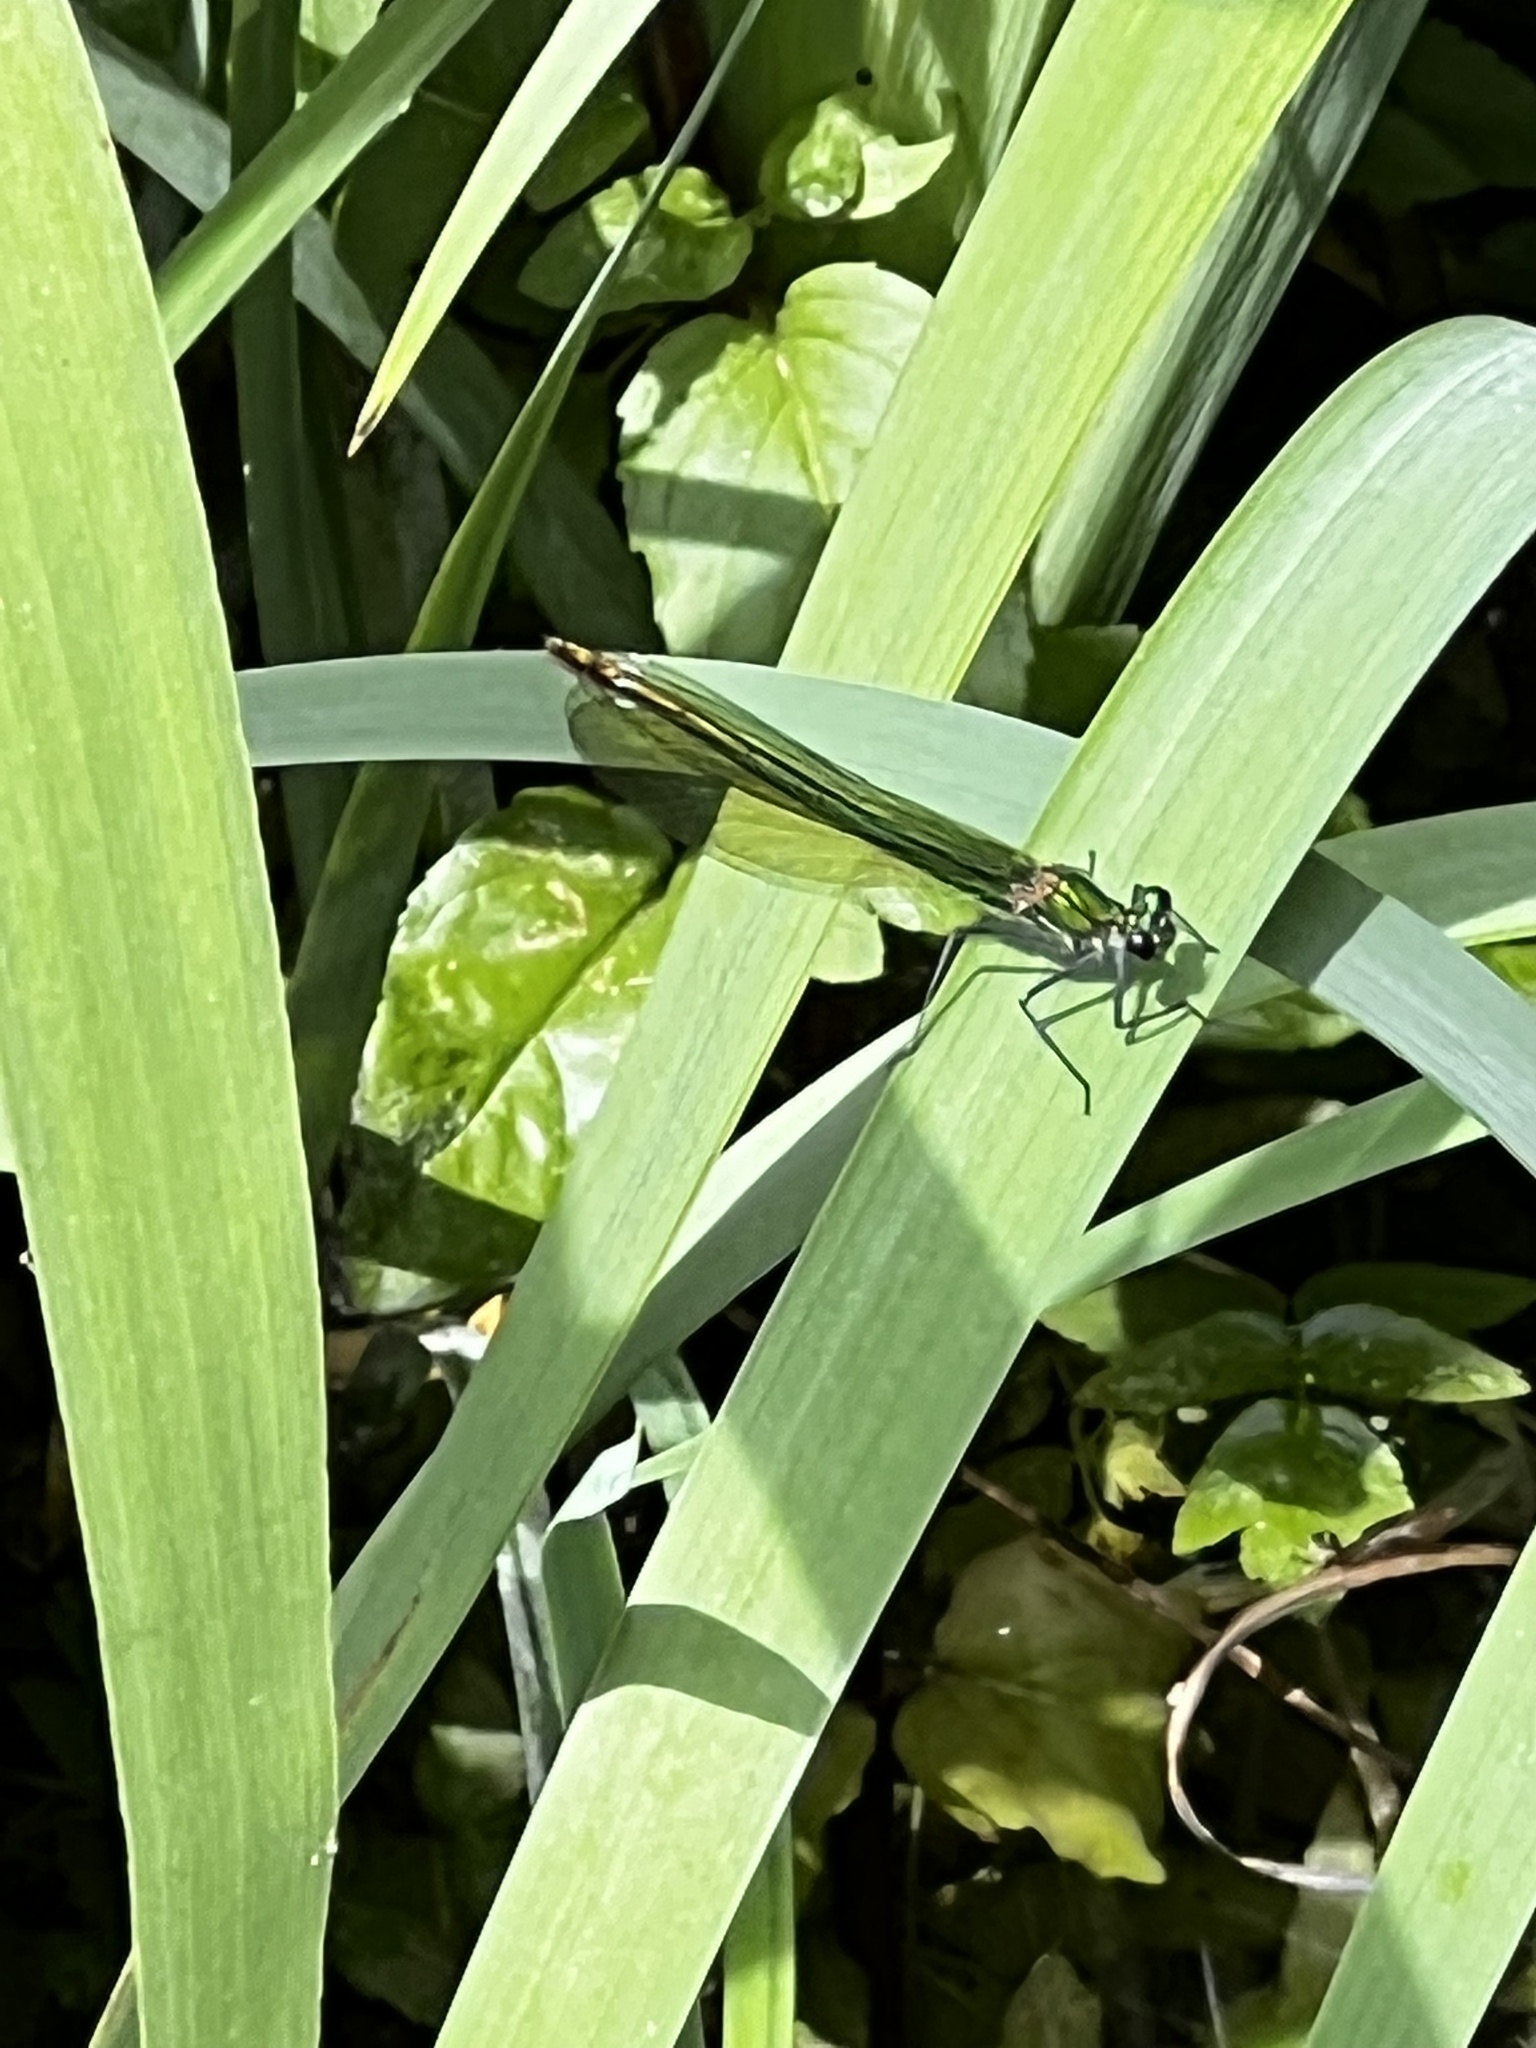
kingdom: Animalia
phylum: Arthropoda
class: Insecta
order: Odonata
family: Calopterygidae
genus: Calopteryx
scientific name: Calopteryx splendens
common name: Banded demoiselle
